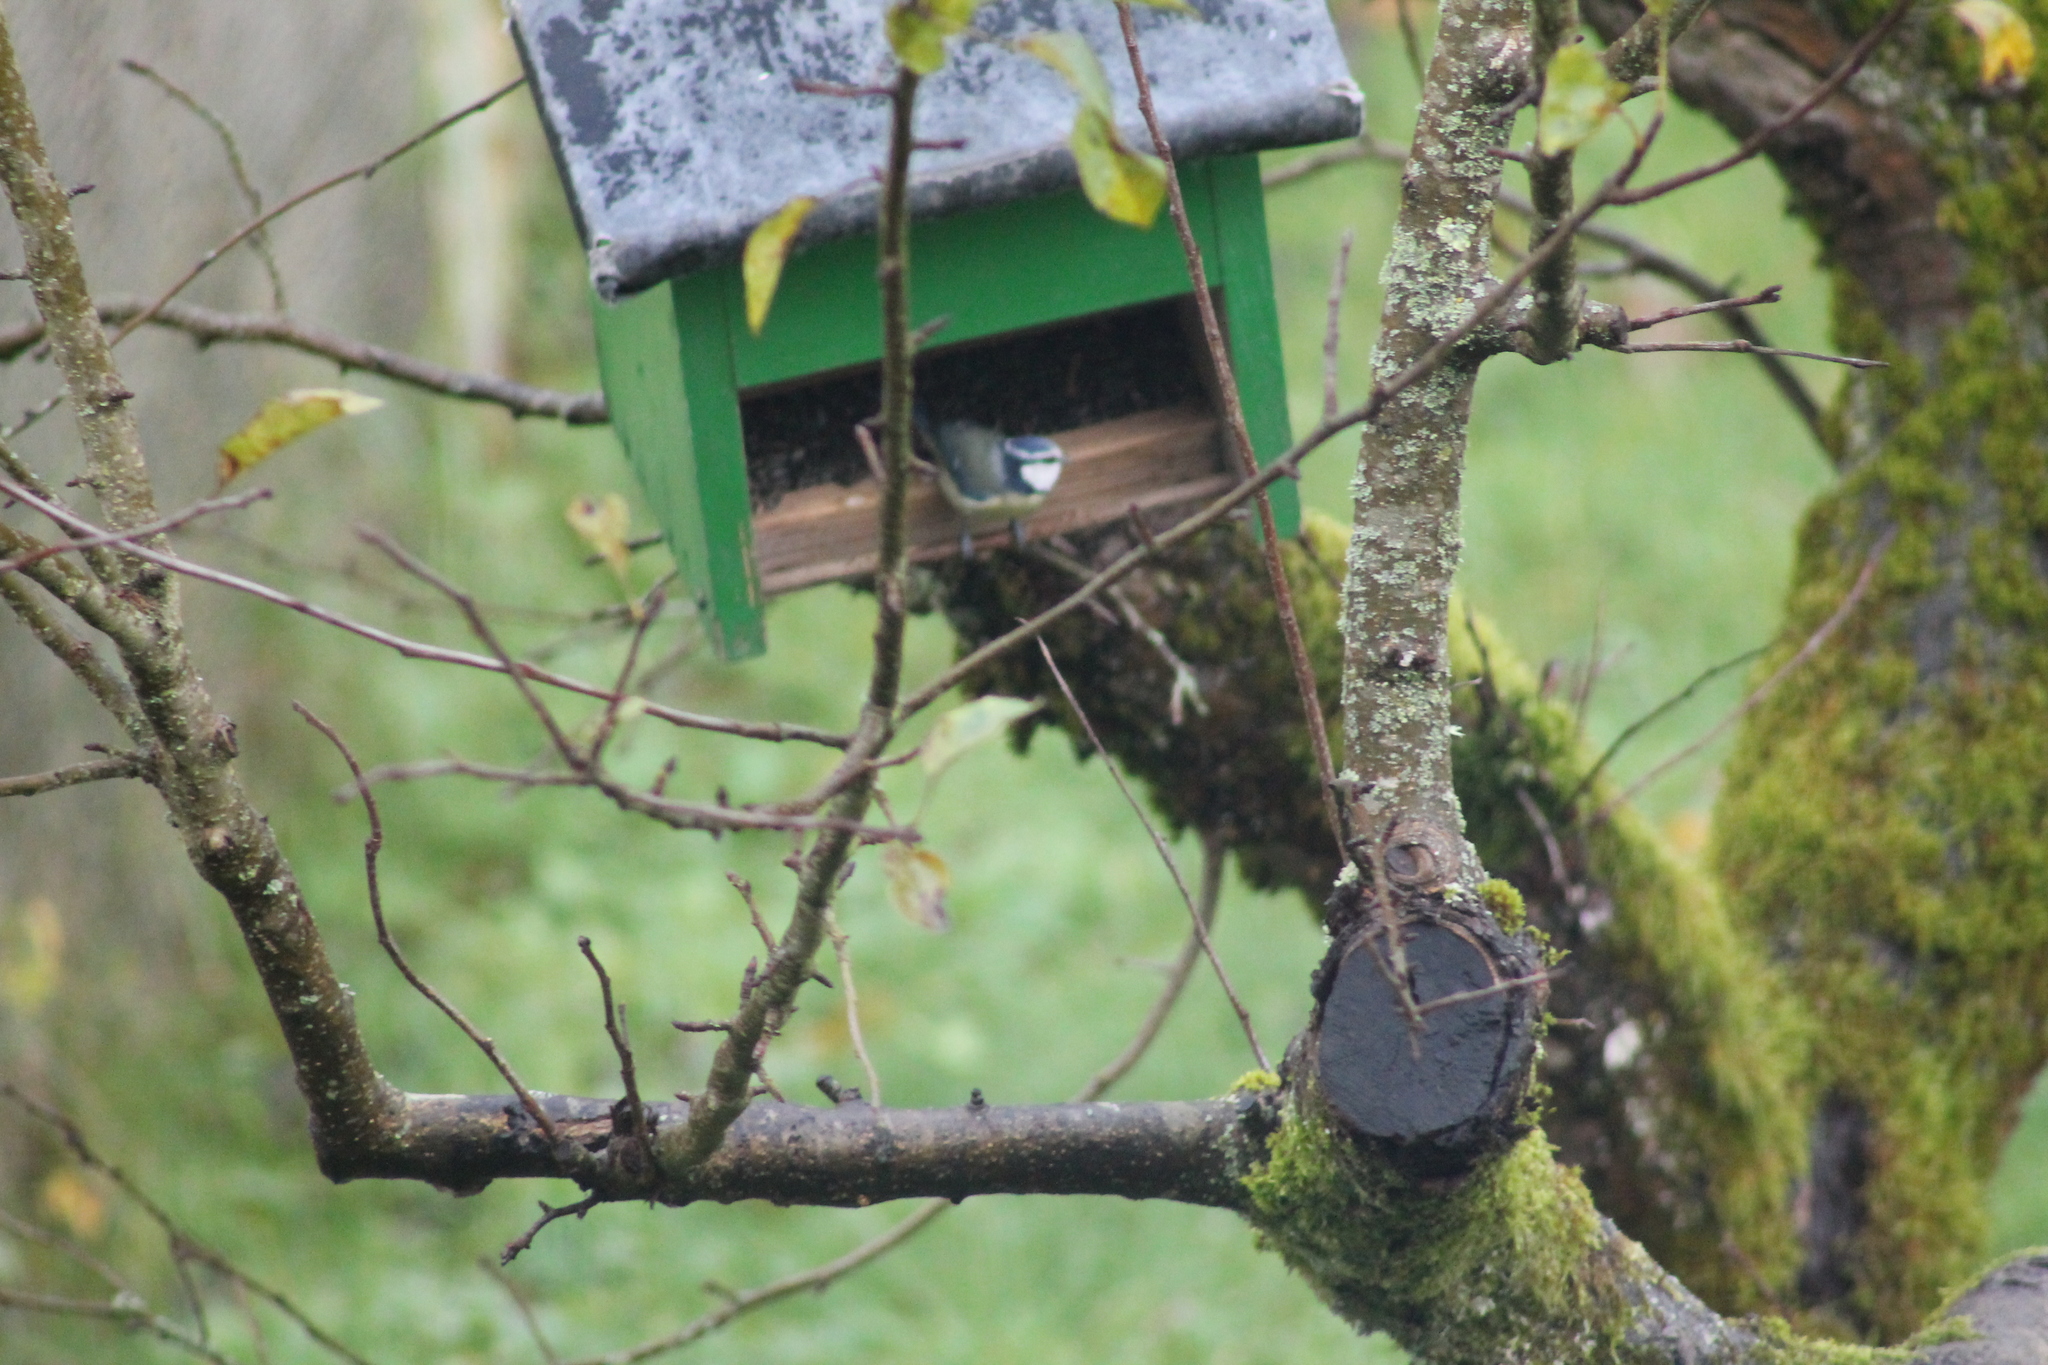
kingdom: Animalia
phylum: Chordata
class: Aves
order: Passeriformes
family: Paridae
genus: Cyanistes
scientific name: Cyanistes caeruleus
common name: Eurasian blue tit
